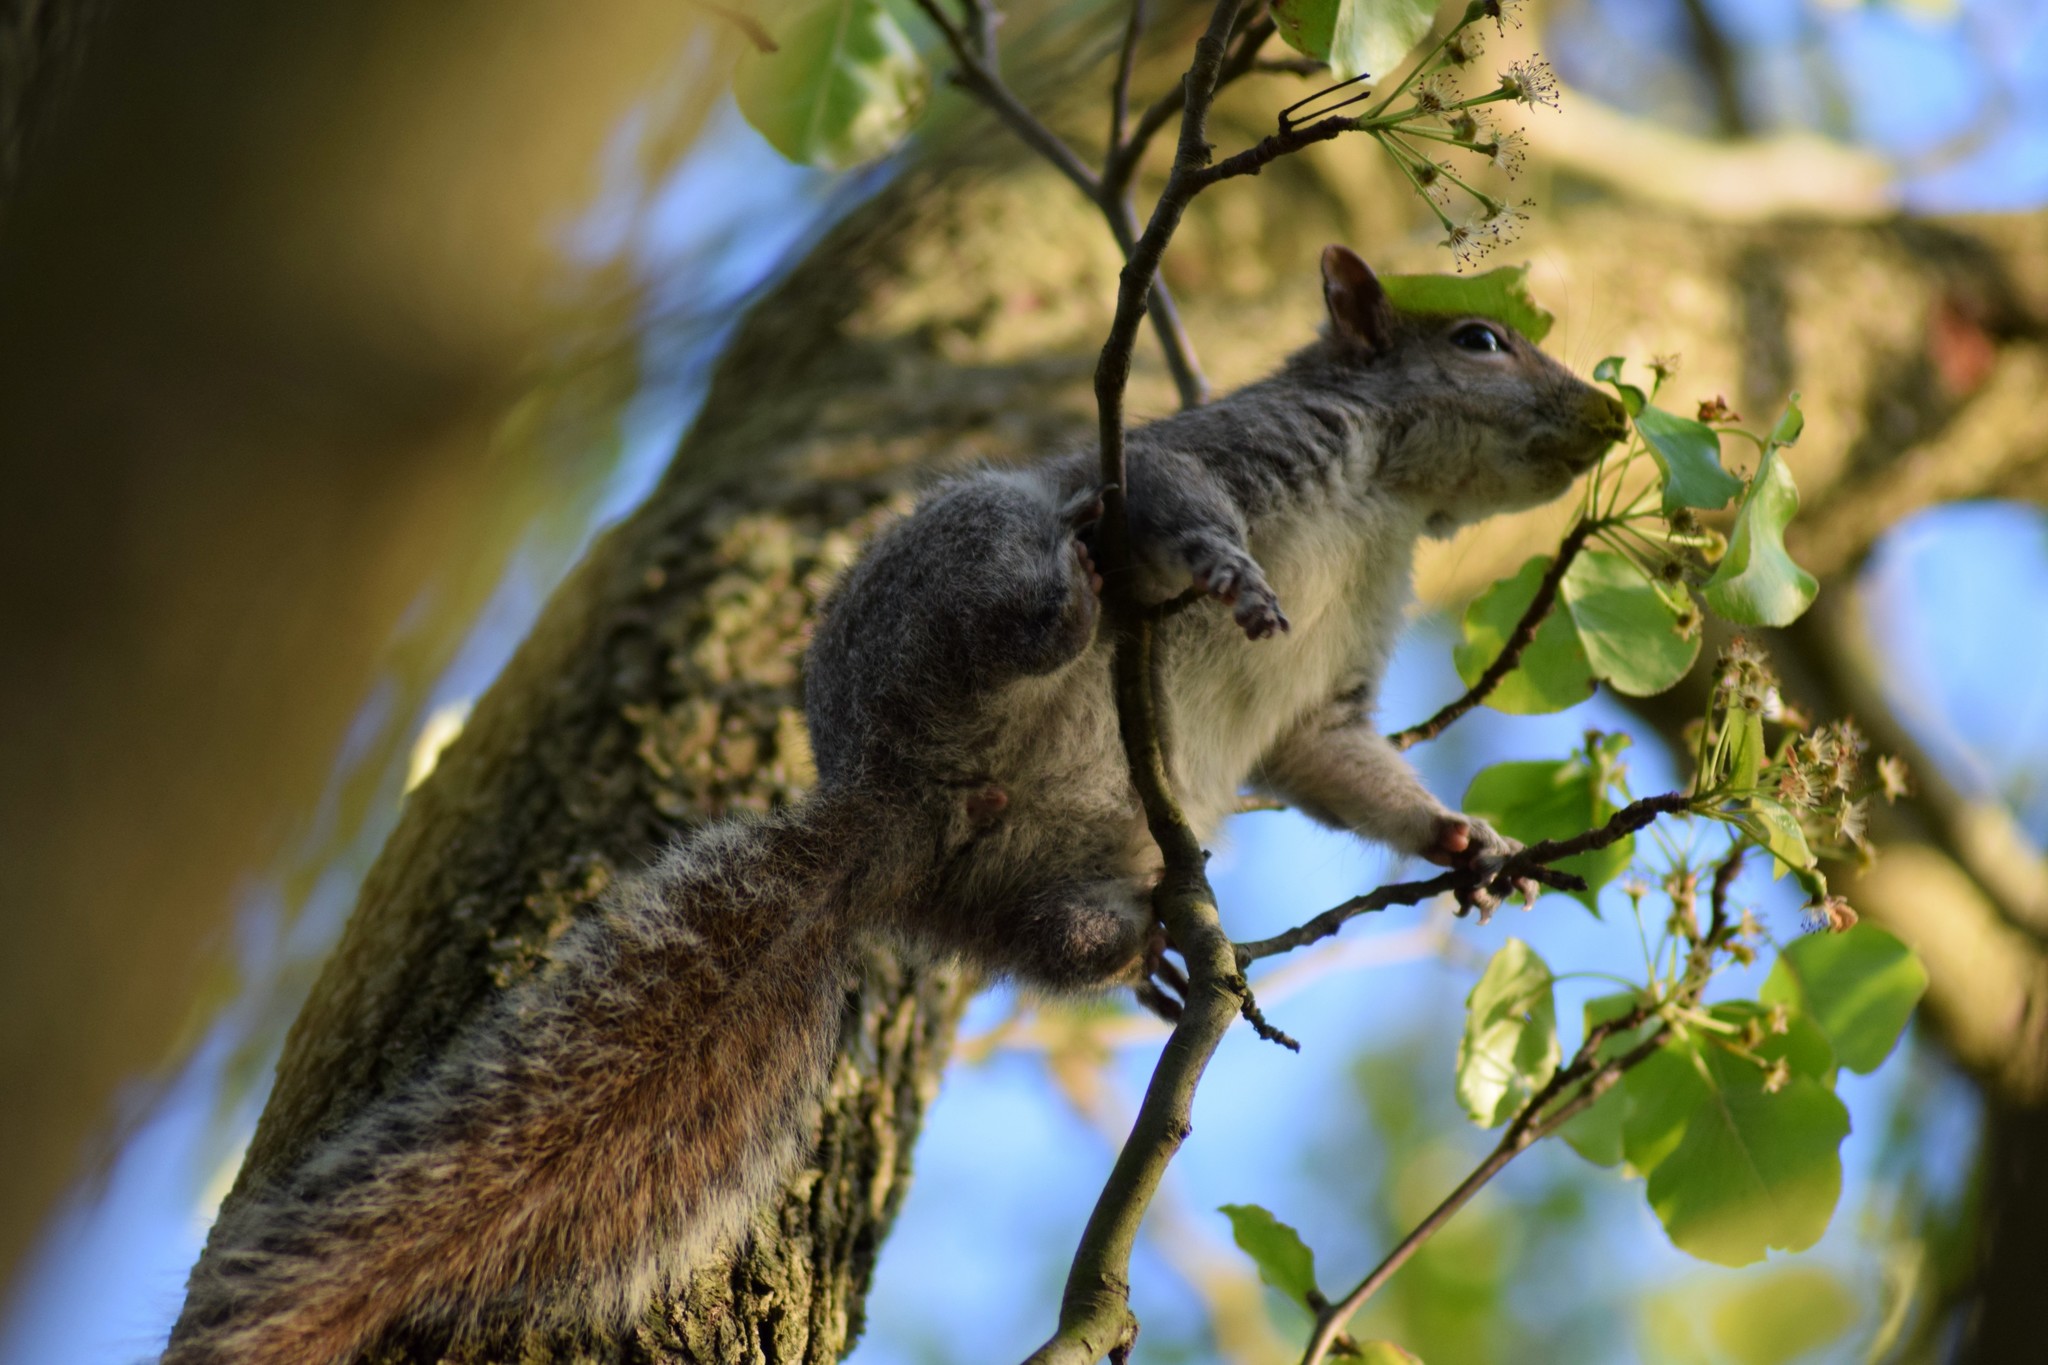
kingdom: Animalia
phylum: Chordata
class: Mammalia
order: Rodentia
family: Sciuridae
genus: Sciurus
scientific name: Sciurus carolinensis
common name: Eastern gray squirrel
